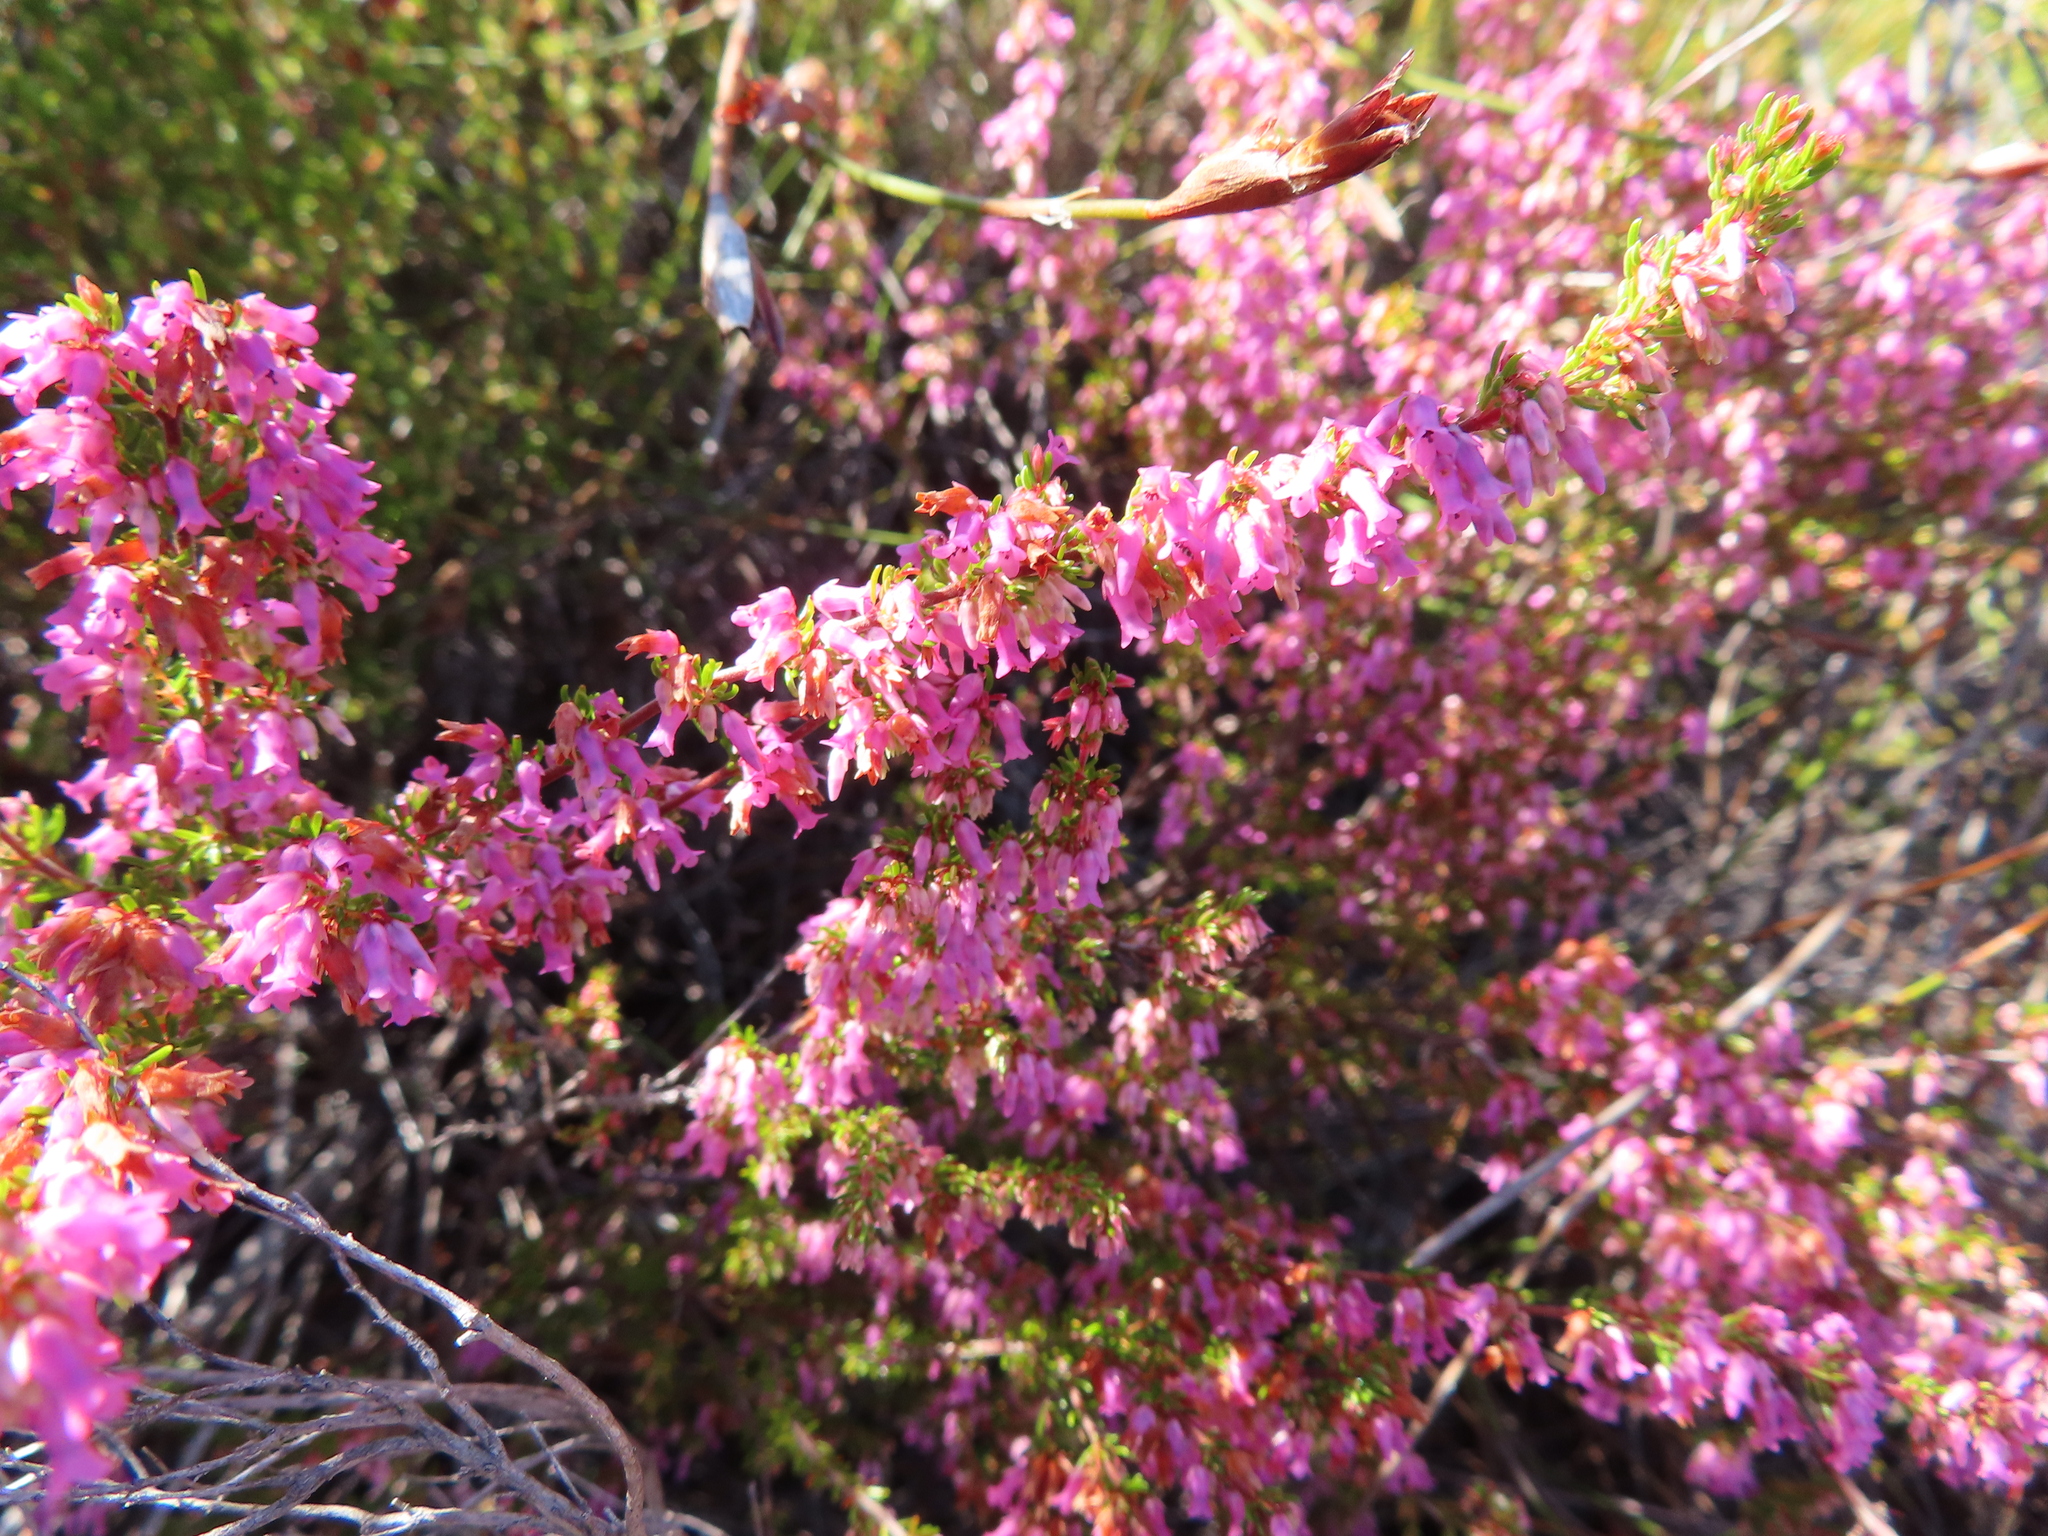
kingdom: Plantae
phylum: Tracheophyta
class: Magnoliopsida
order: Ericales
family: Ericaceae
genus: Erica
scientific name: Erica intervallaris
